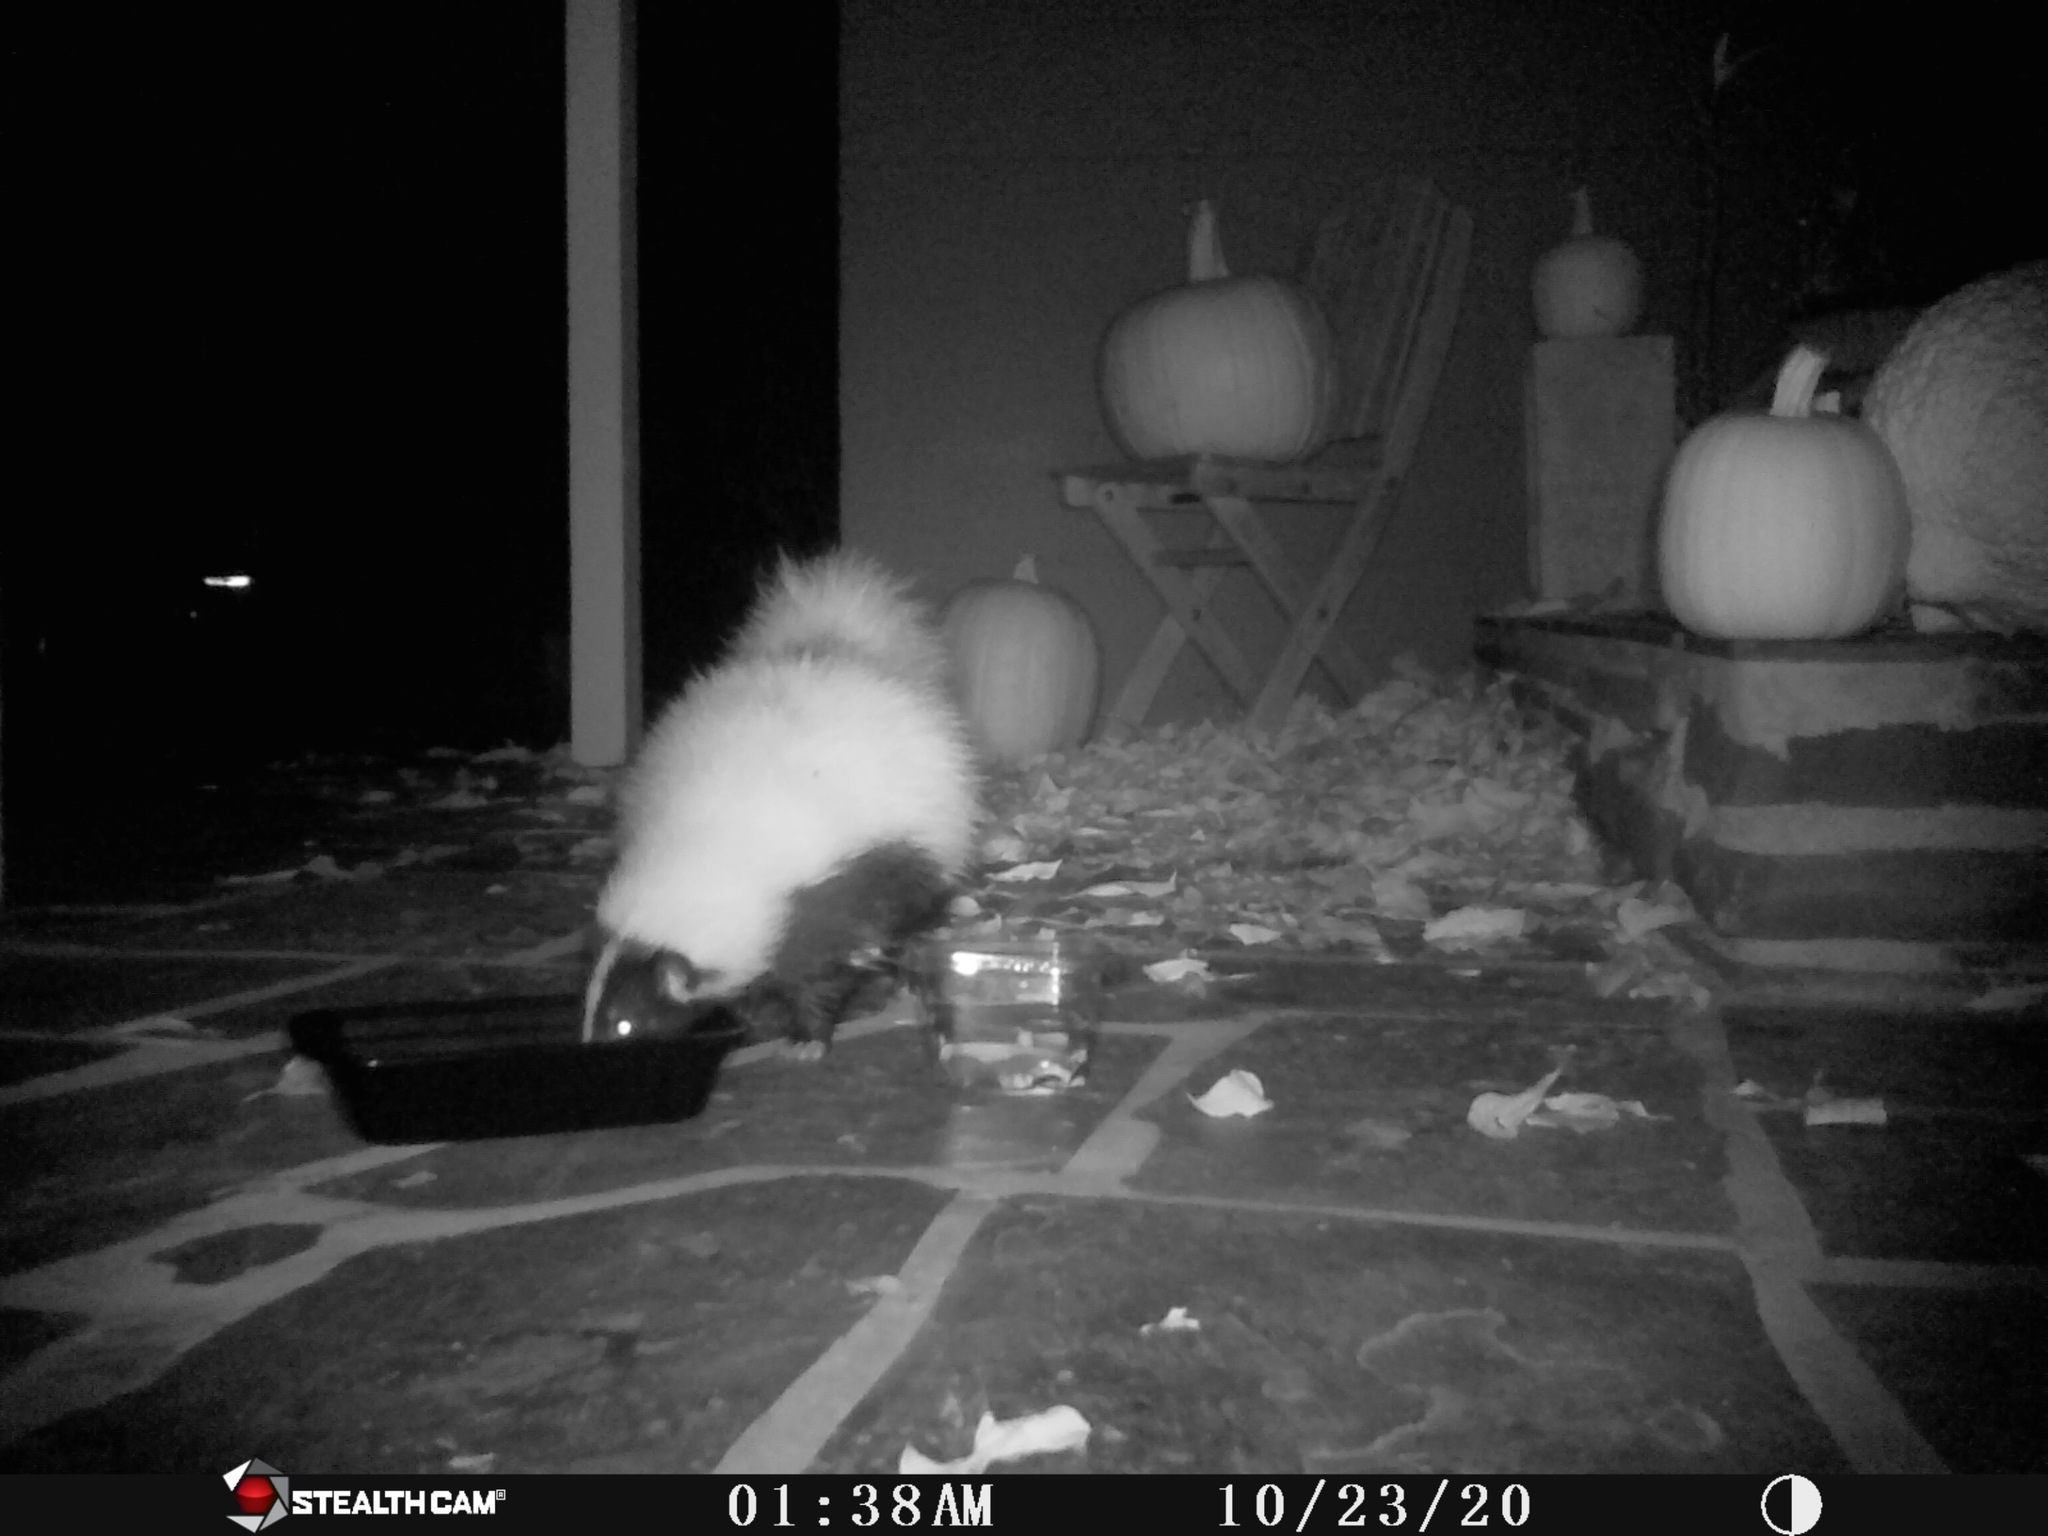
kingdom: Animalia
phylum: Chordata
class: Mammalia
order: Carnivora
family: Mephitidae
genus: Mephitis
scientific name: Mephitis mephitis
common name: Striped skunk
